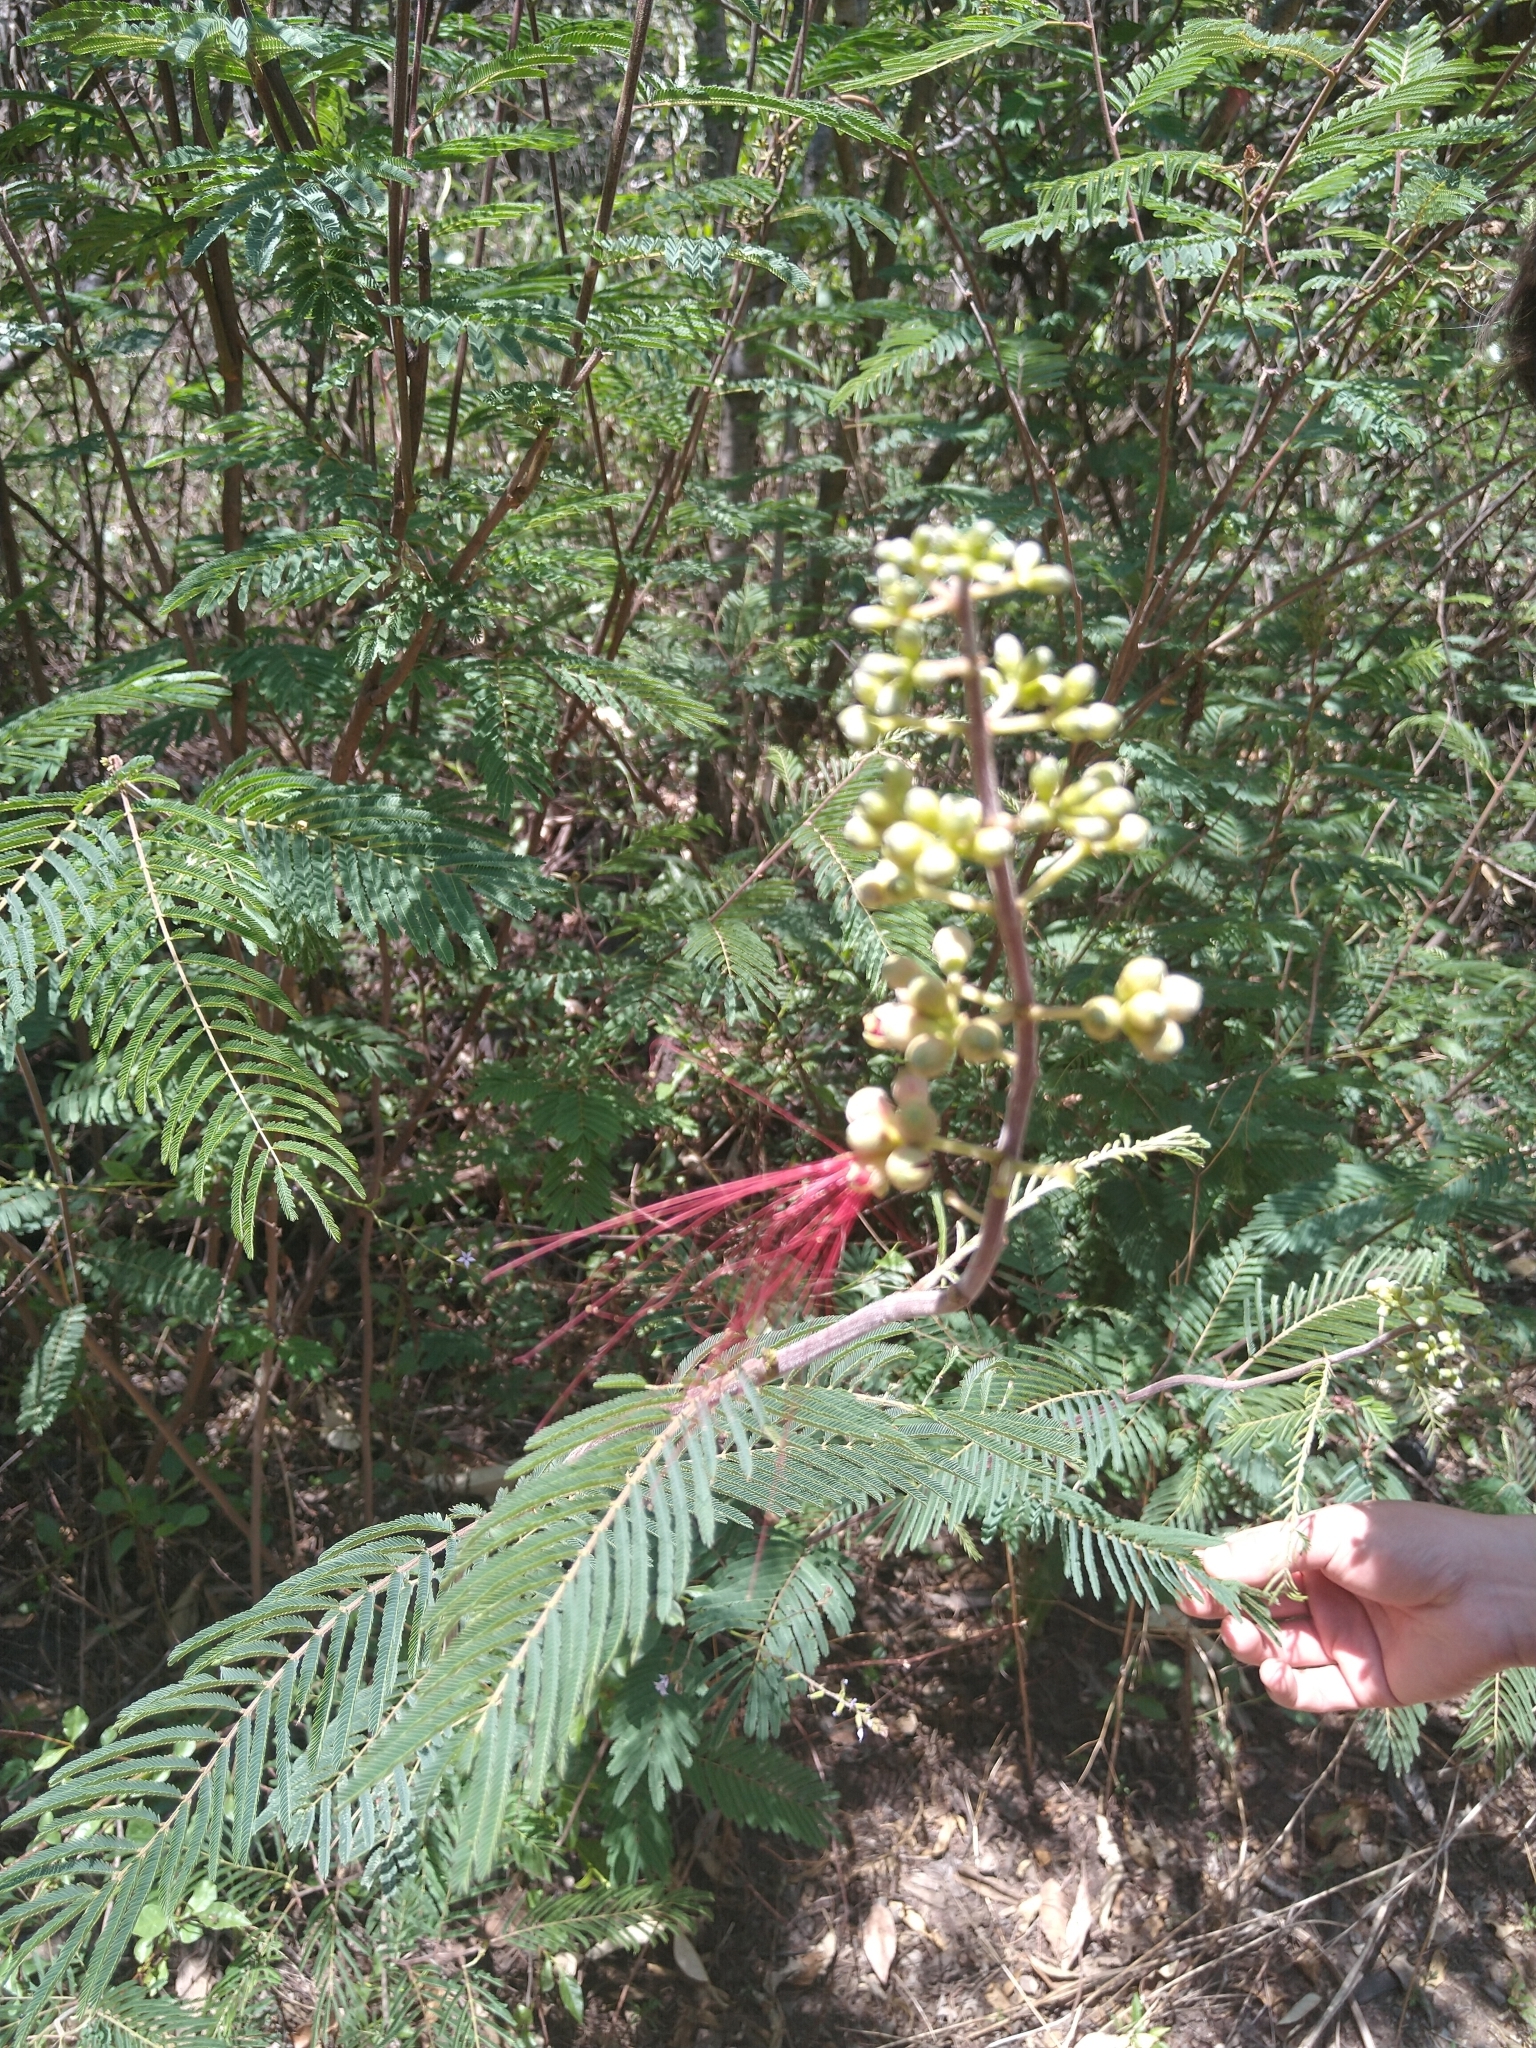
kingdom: Plantae
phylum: Tracheophyta
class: Magnoliopsida
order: Fabales
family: Fabaceae
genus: Calliandra
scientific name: Calliandra houstoniana
